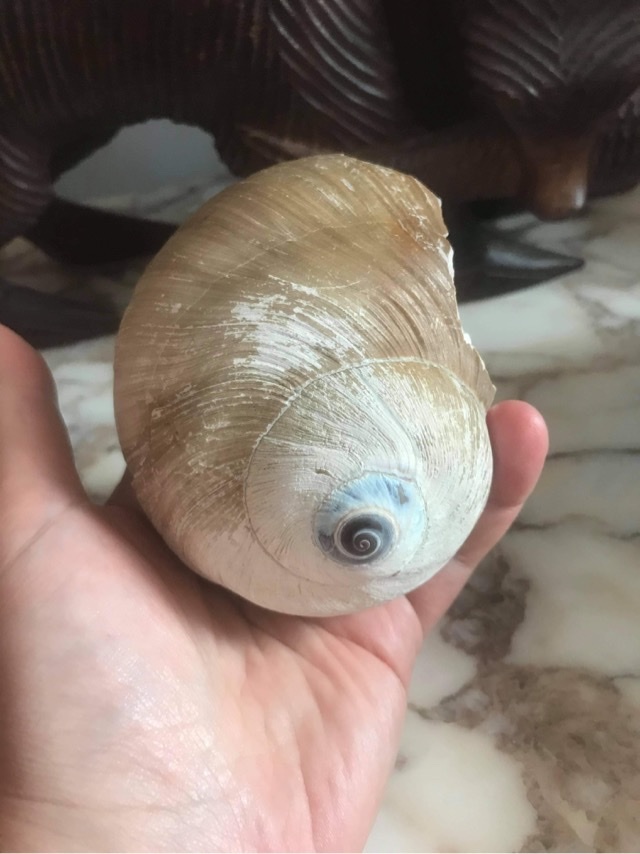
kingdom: Animalia
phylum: Mollusca
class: Gastropoda
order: Littorinimorpha
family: Naticidae
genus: Neverita
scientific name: Neverita lewisii
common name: Lewis' moonsnail
